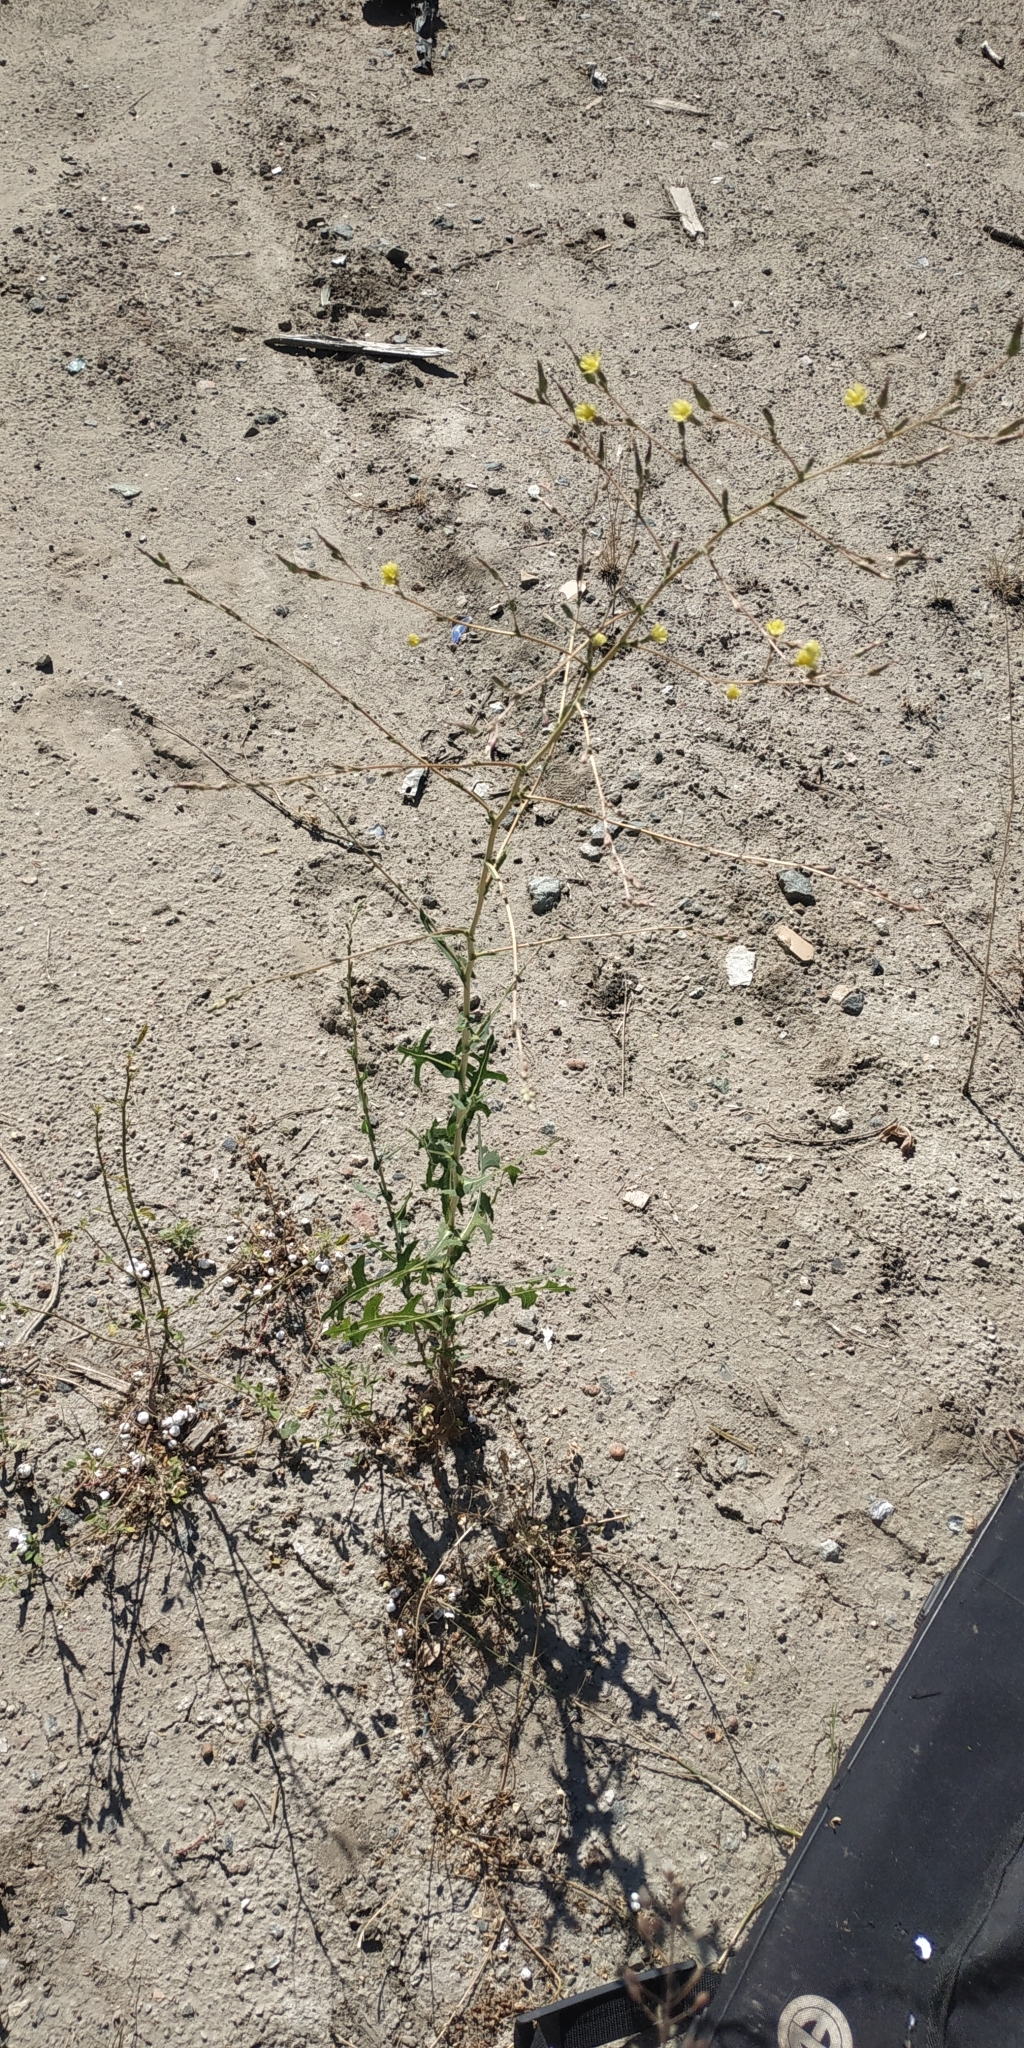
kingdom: Plantae
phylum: Tracheophyta
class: Magnoliopsida
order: Asterales
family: Asteraceae
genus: Lactuca
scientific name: Lactuca serriola
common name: Prickly lettuce
